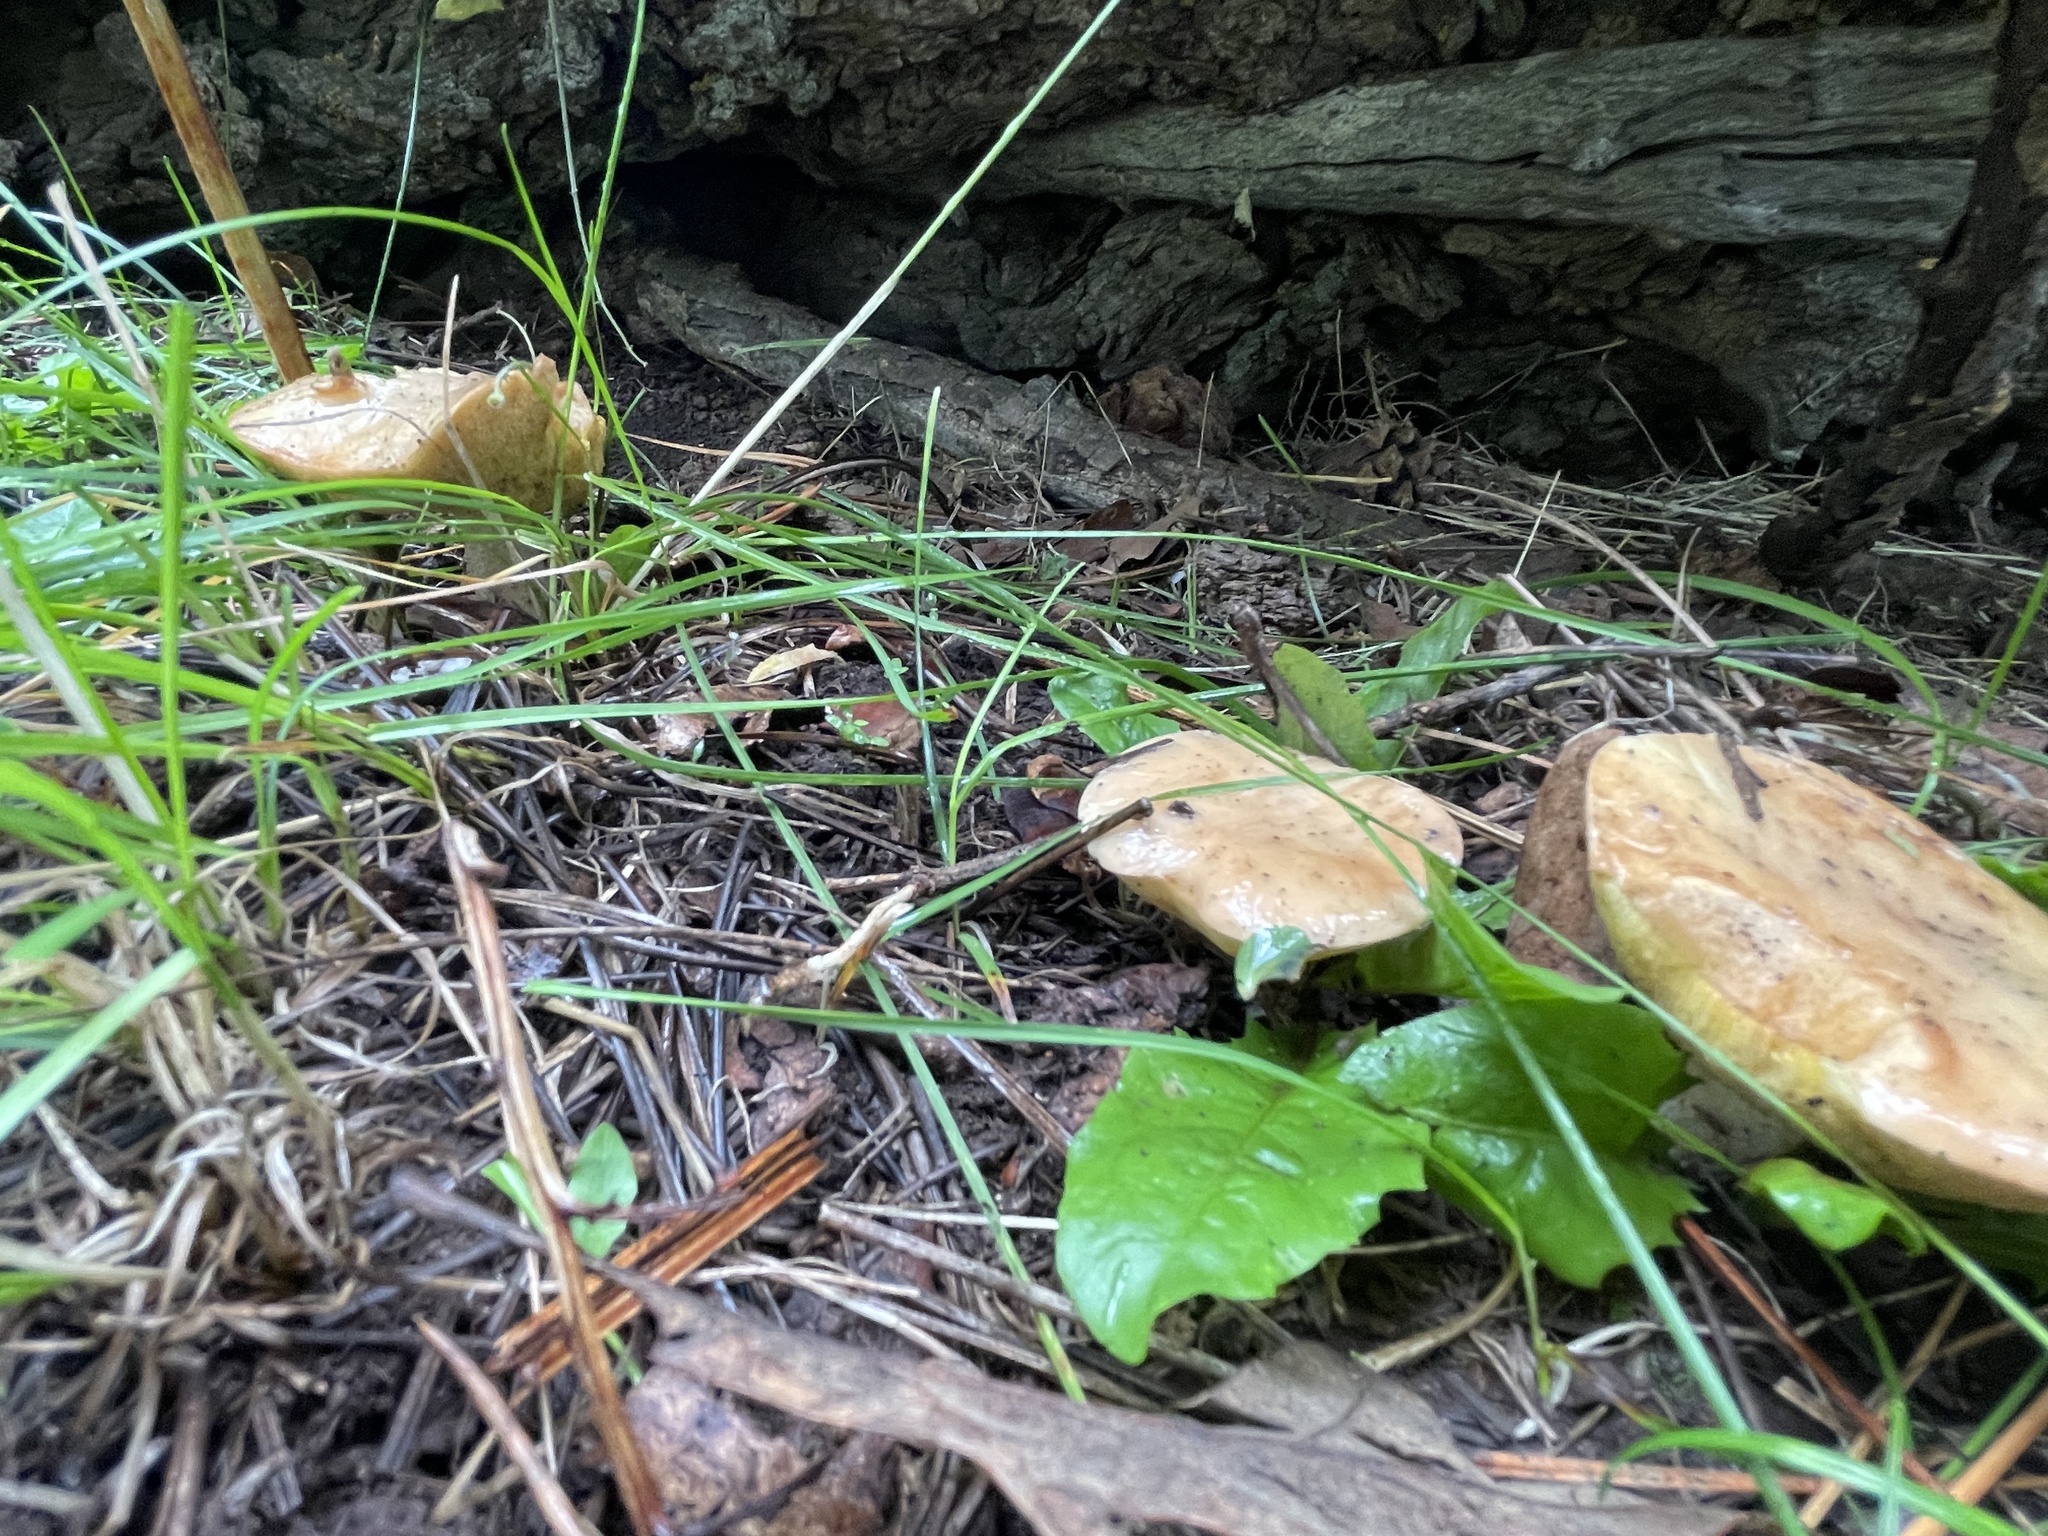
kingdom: Fungi
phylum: Basidiomycota
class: Agaricomycetes
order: Boletales
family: Suillaceae
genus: Suillus
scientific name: Suillus occidentalis
